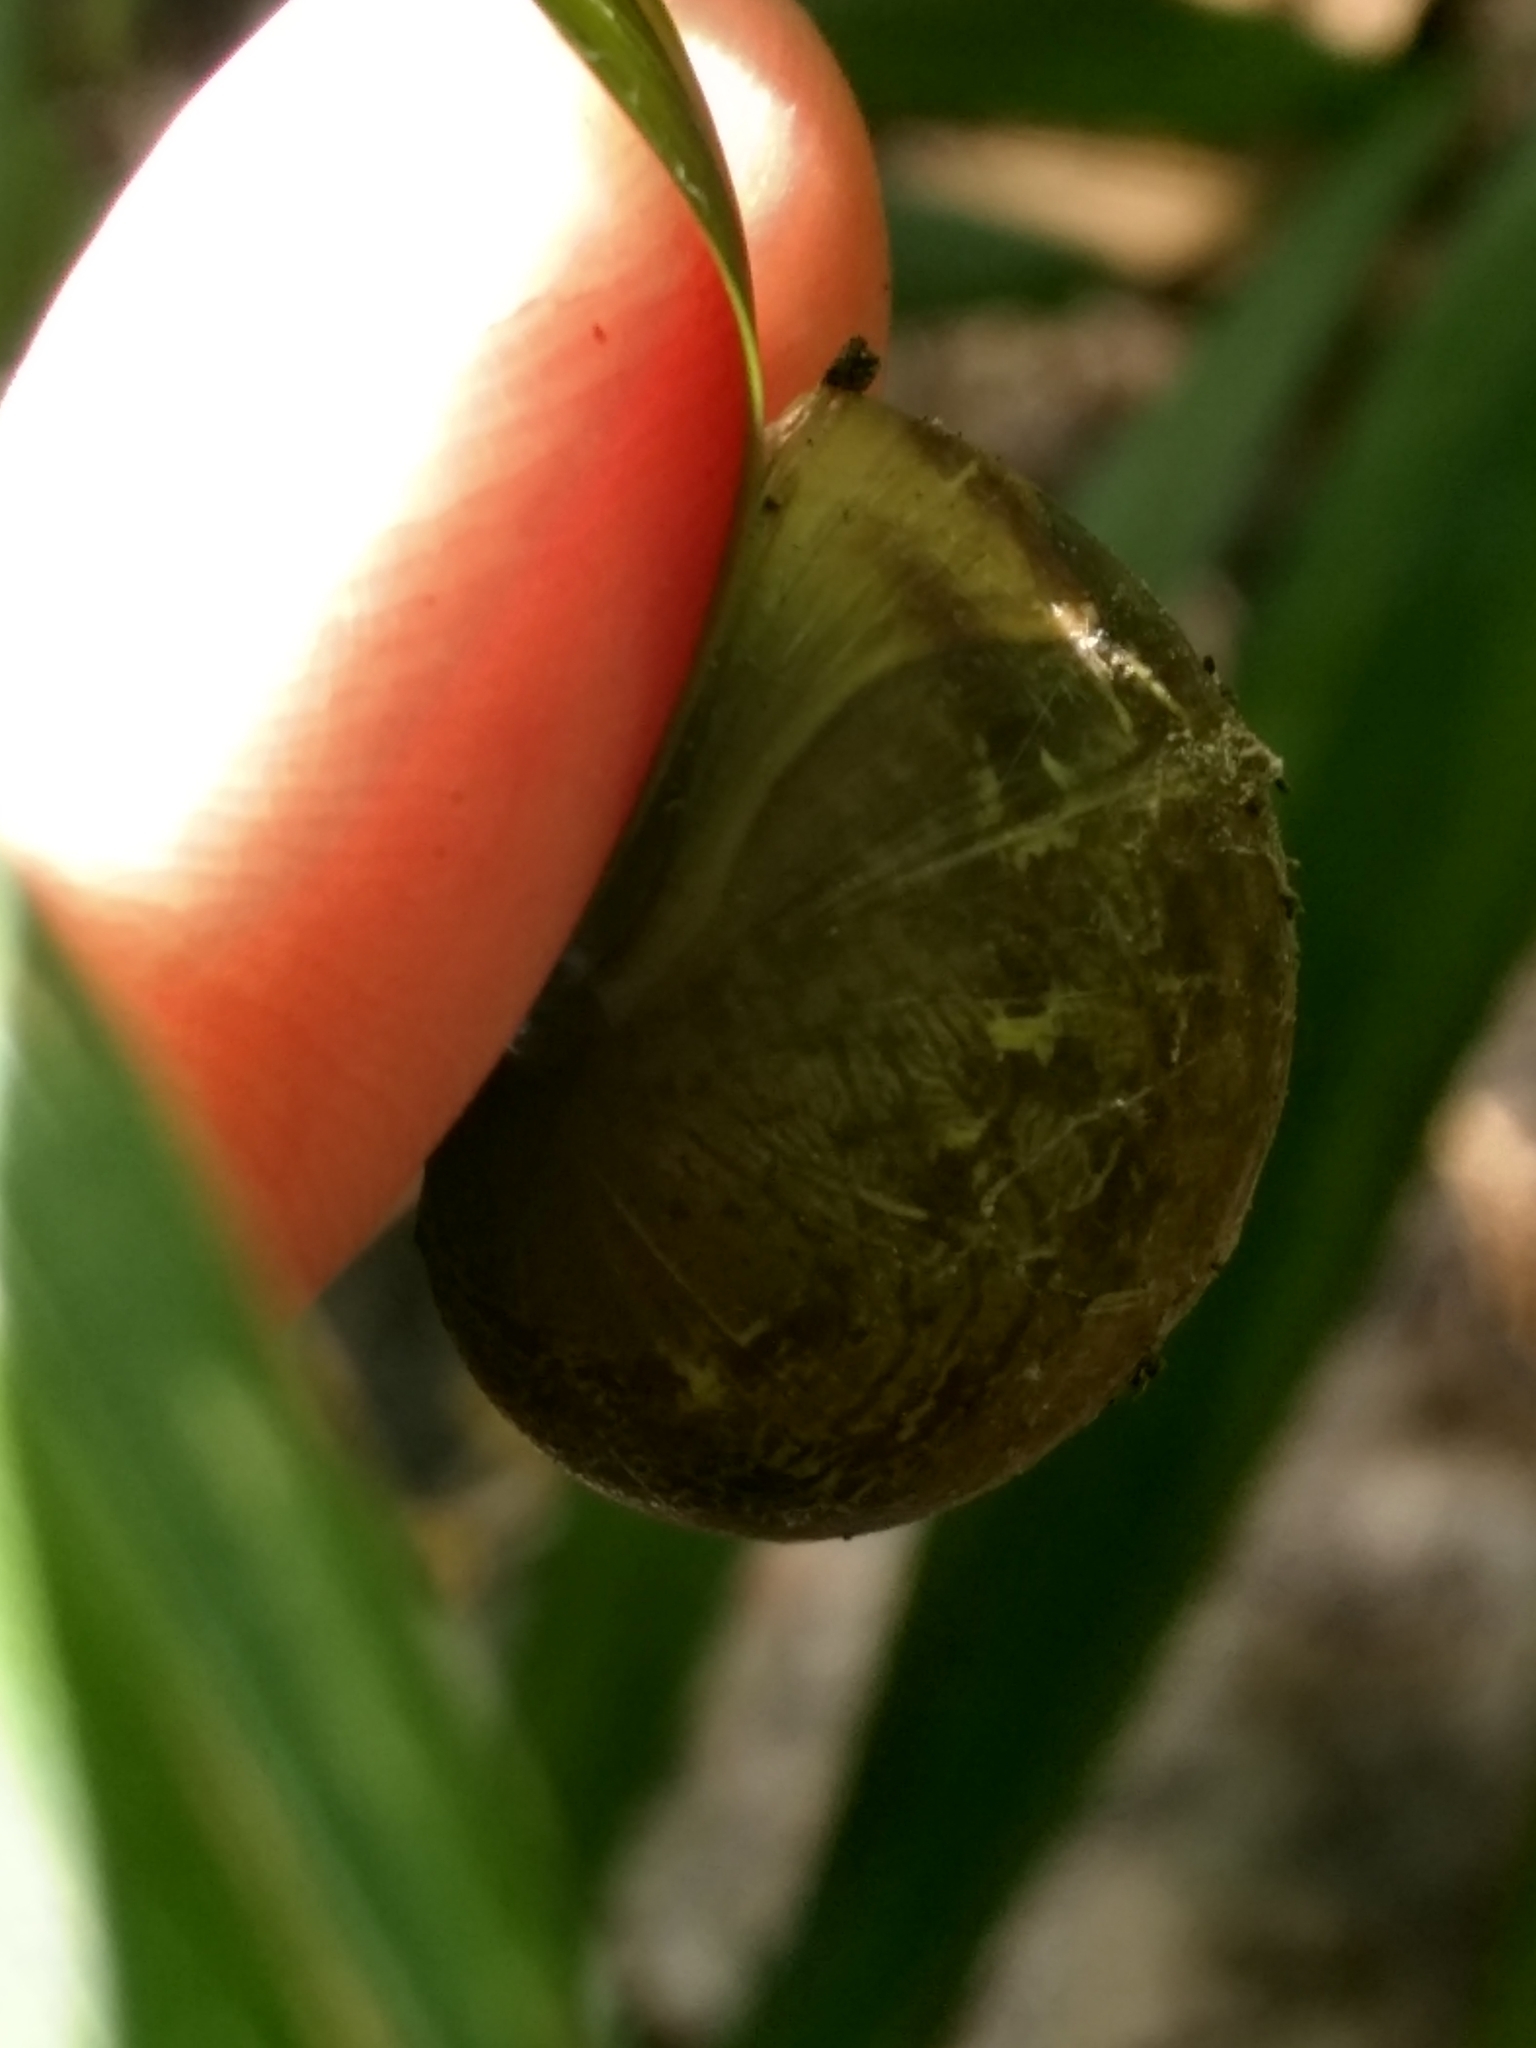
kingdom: Animalia
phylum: Mollusca
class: Gastropoda
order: Stylommatophora
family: Helicidae
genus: Cornu
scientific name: Cornu aspersum
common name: Brown garden snail
